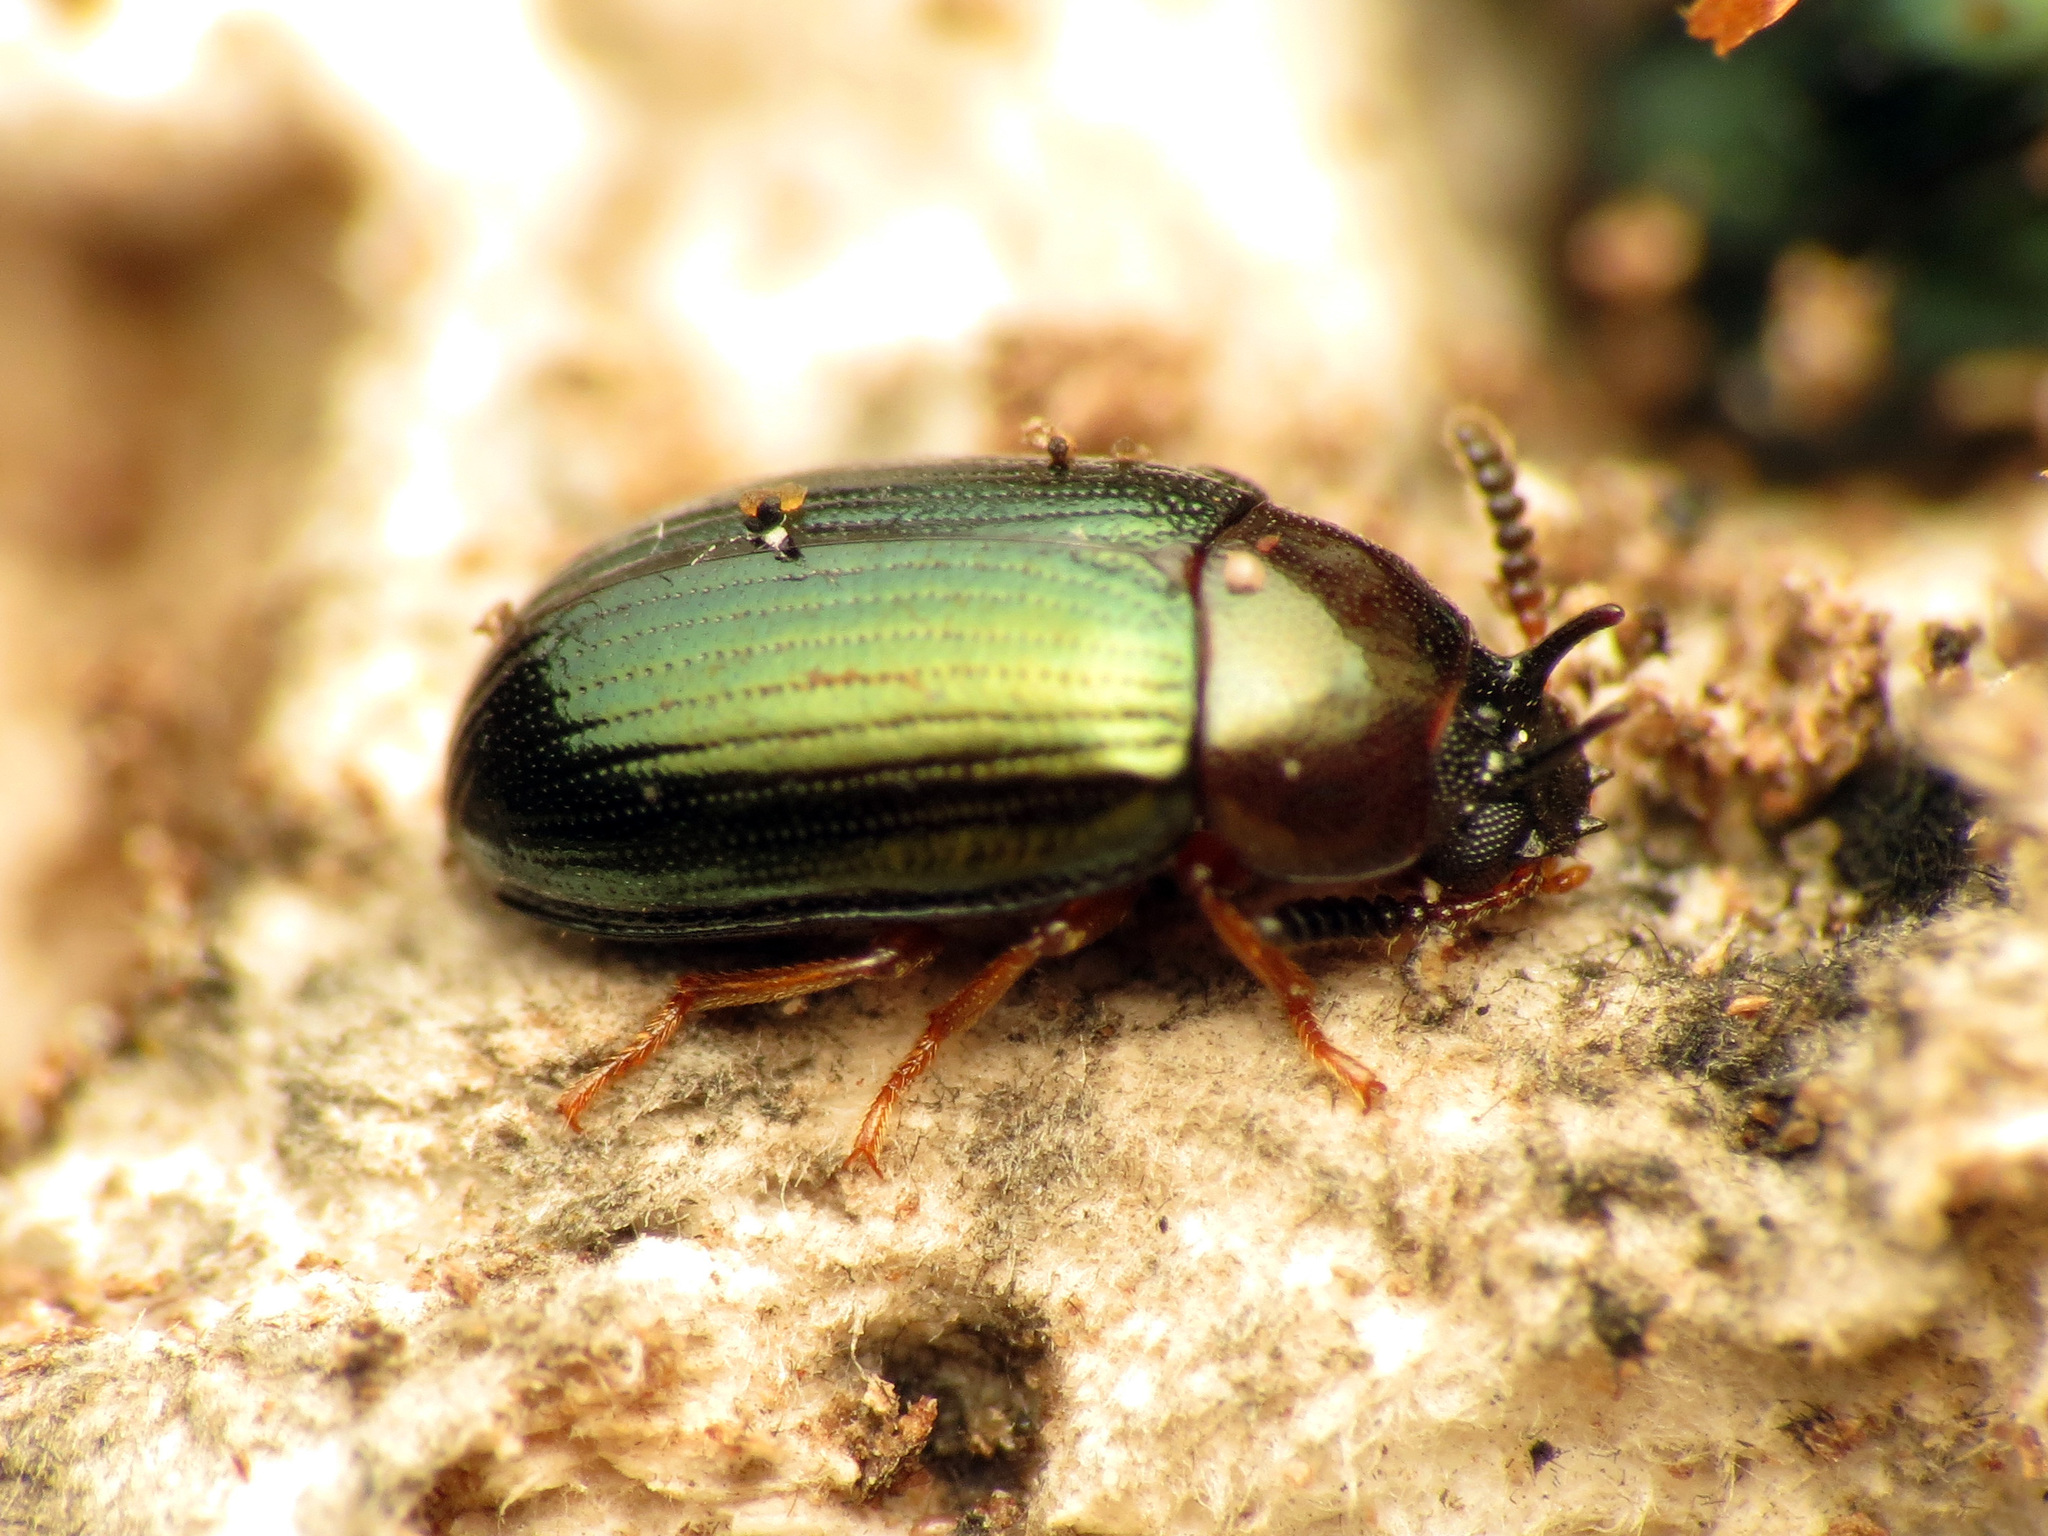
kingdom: Animalia
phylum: Arthropoda
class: Insecta
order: Coleoptera
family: Tenebrionidae
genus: Neomida
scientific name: Neomida bicornis
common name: Two-horned darkling beetle
